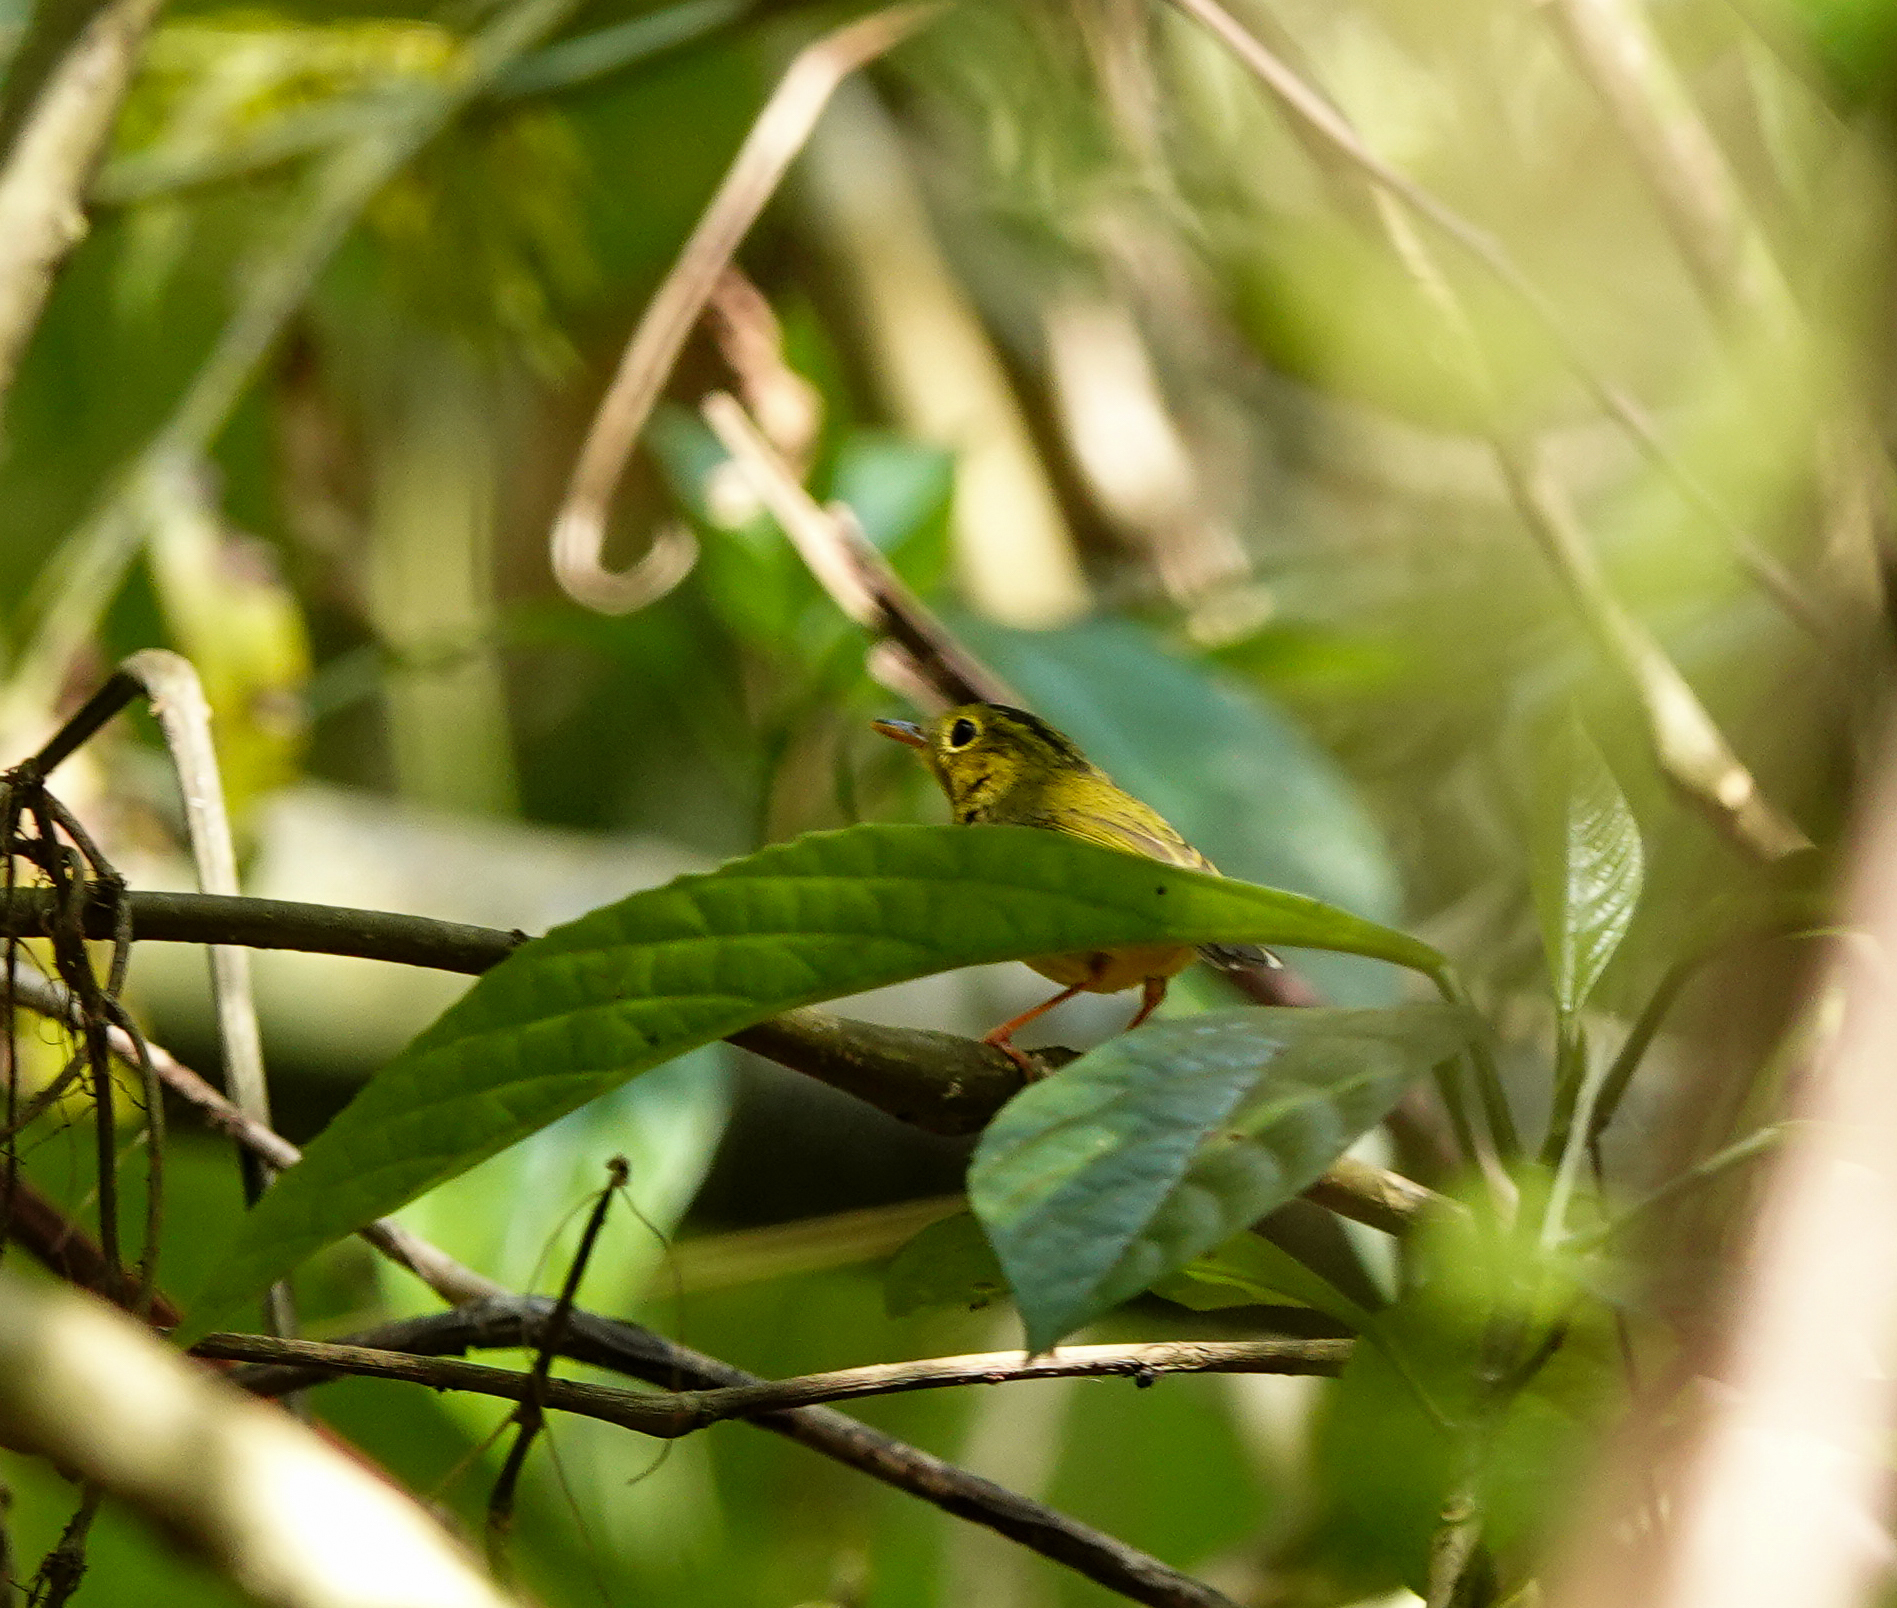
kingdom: Animalia
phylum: Chordata
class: Aves
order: Passeriformes
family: Phylloscopidae
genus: Seicercus
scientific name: Seicercus burkii
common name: Green-crowned warbler
